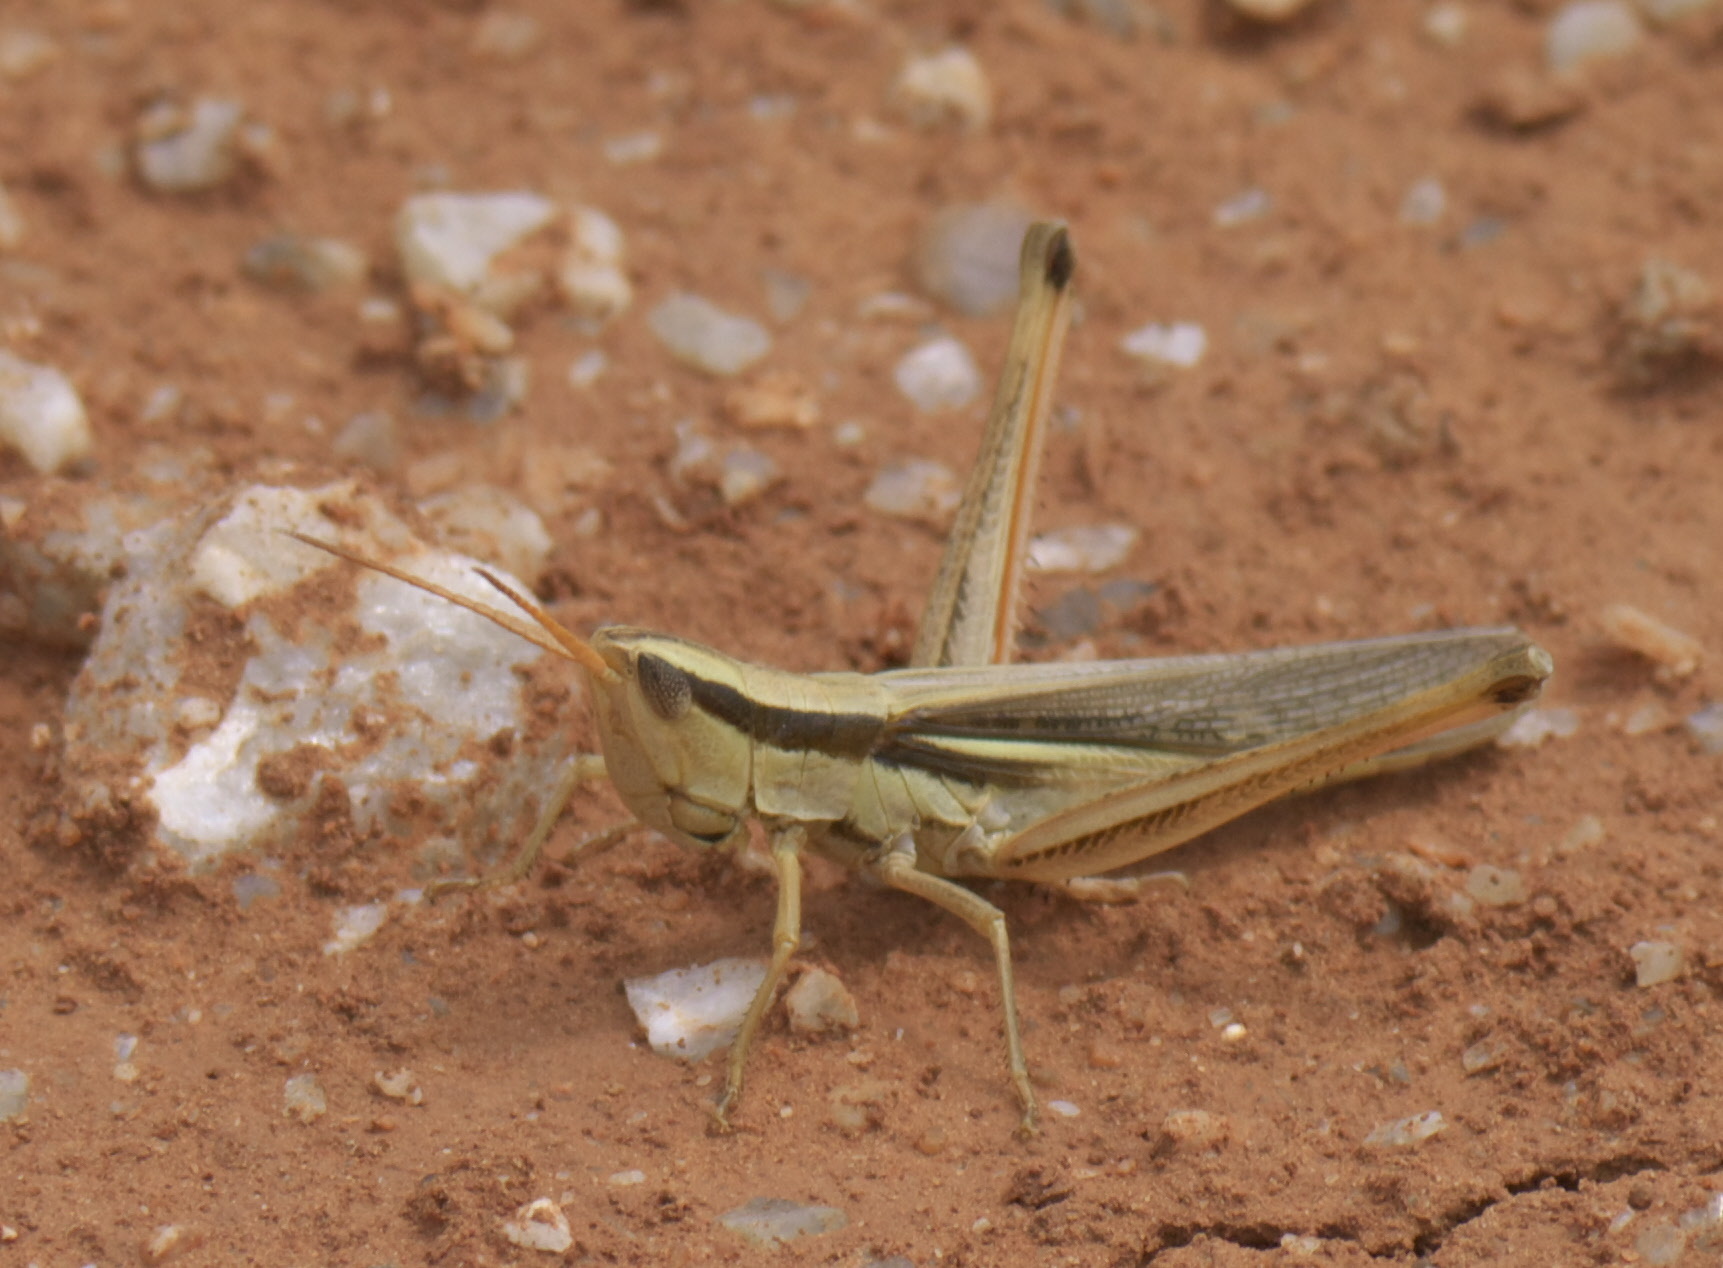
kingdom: Animalia
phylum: Arthropoda
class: Insecta
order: Orthoptera
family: Acrididae
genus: Mermiria
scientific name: Mermiria bivittata
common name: Two-striped mermiria grasshopper
